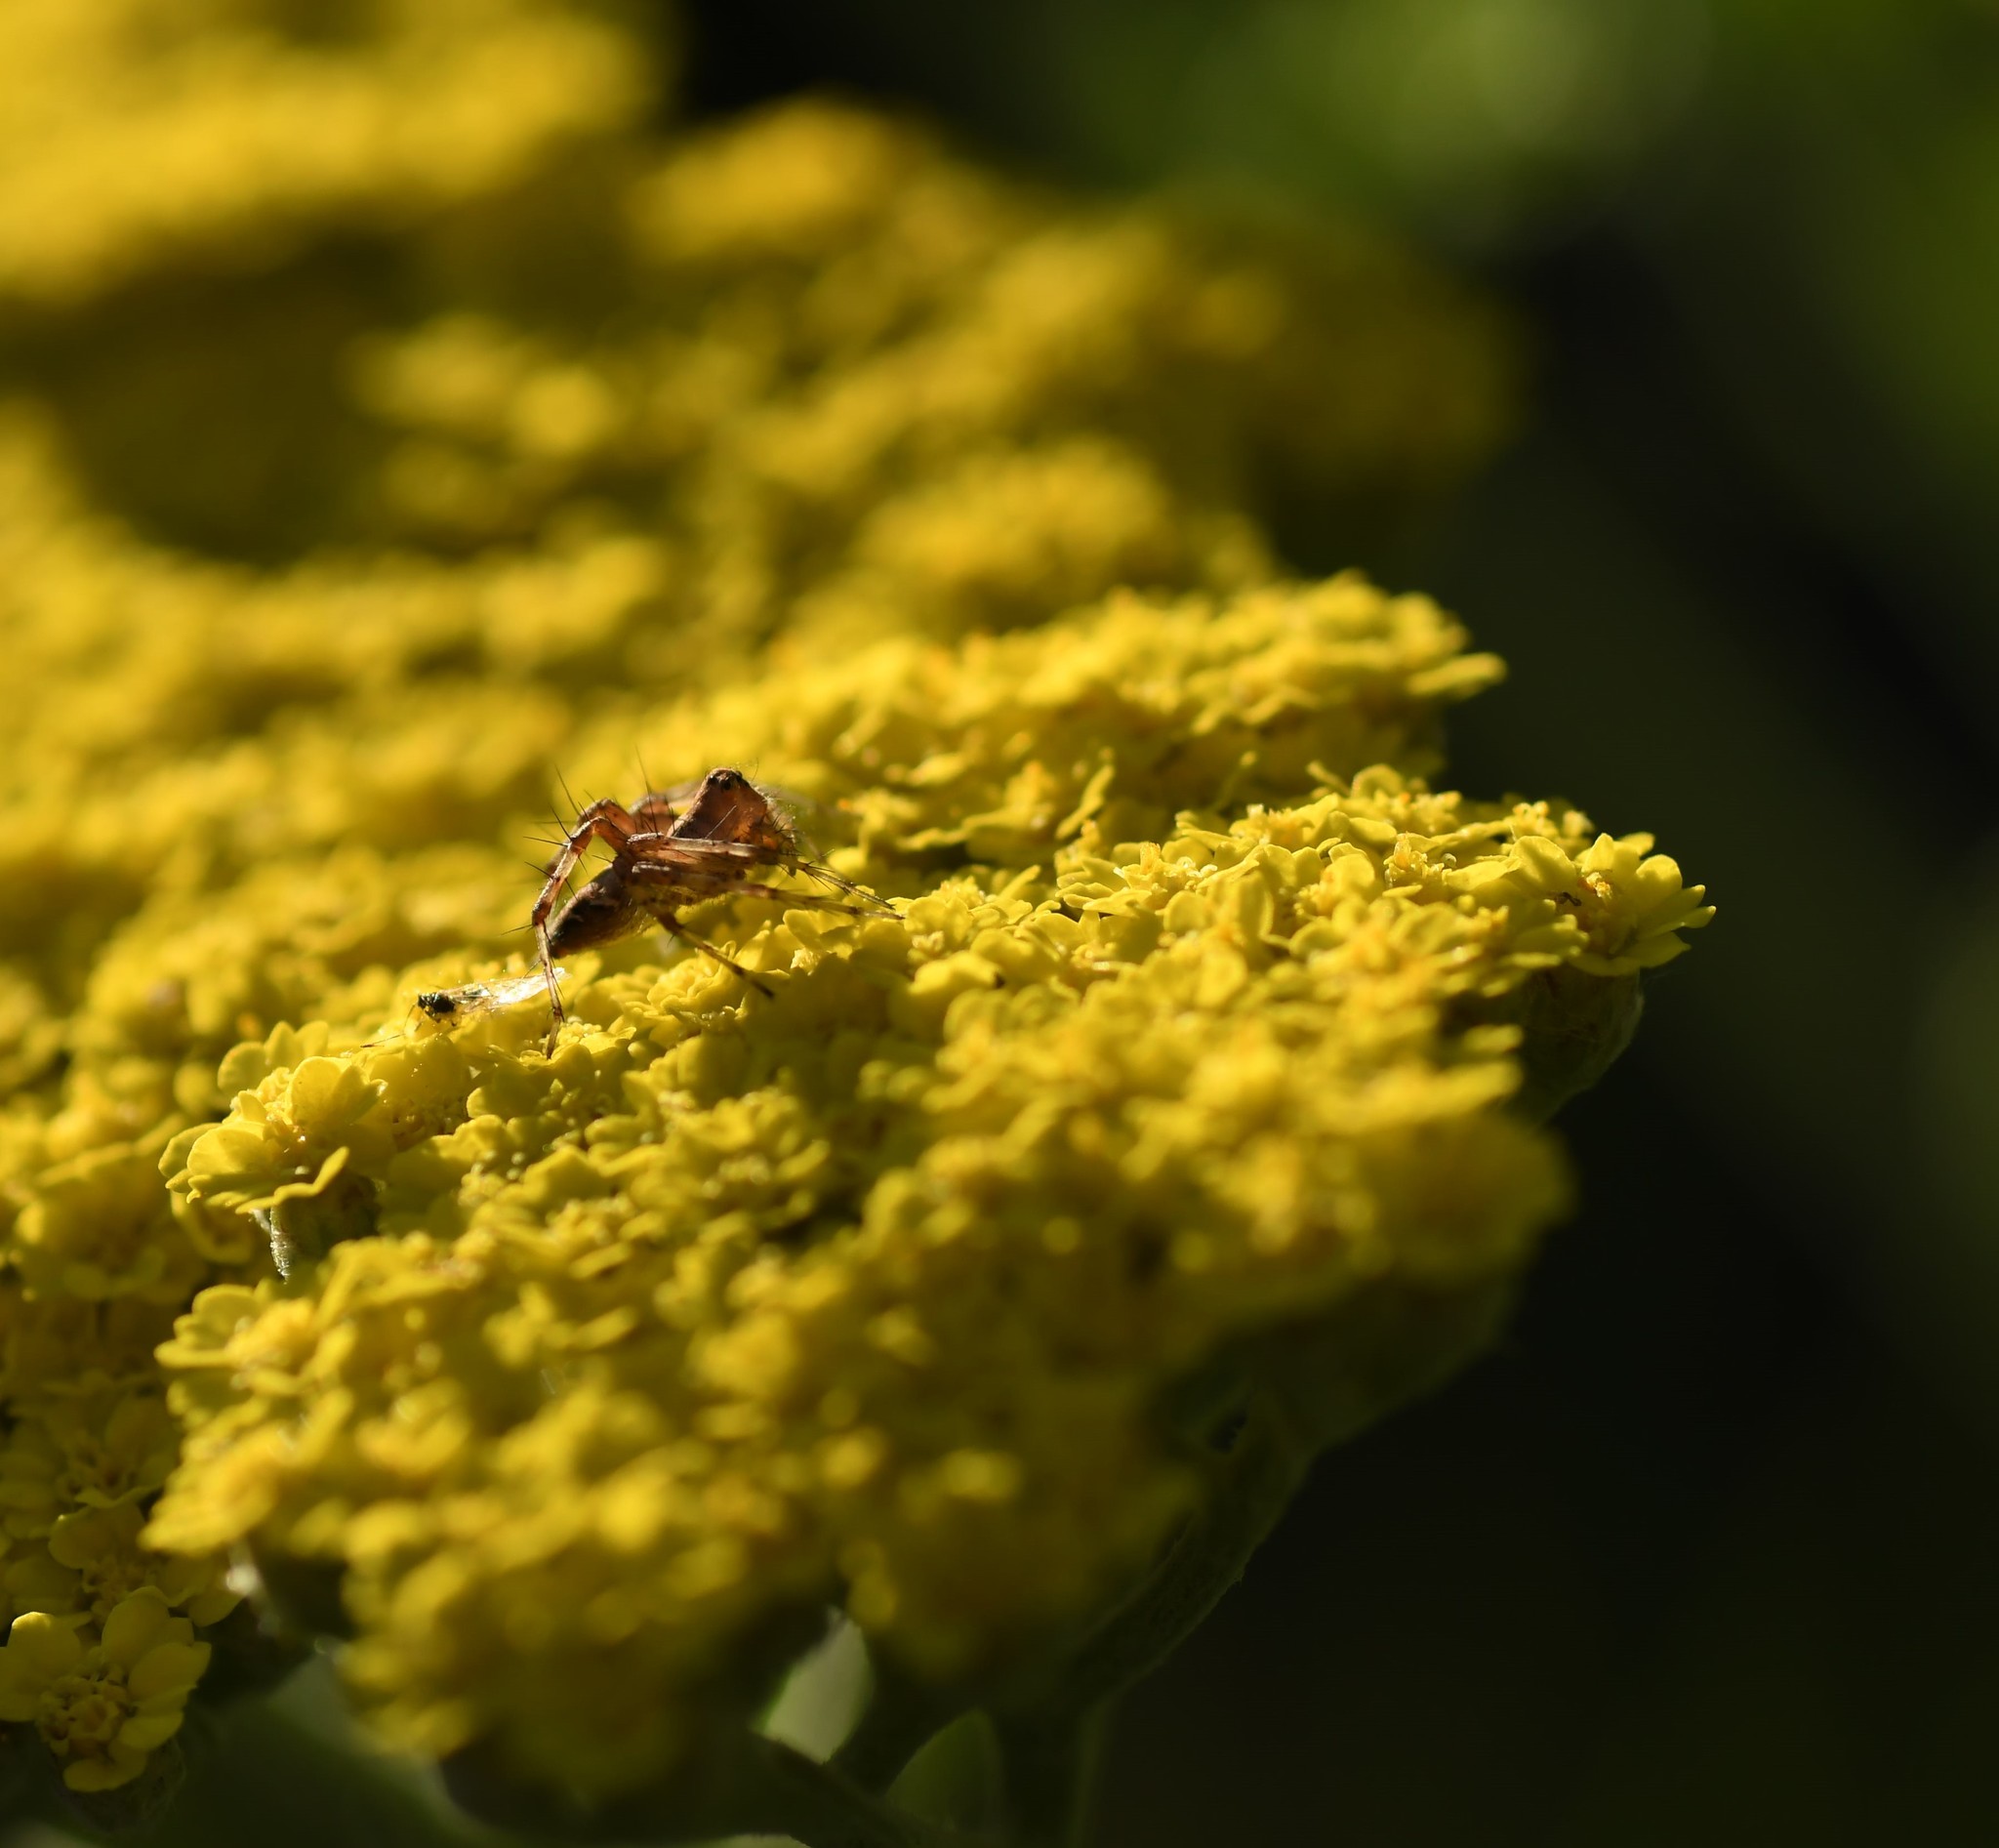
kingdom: Animalia
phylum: Arthropoda
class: Arachnida
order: Araneae
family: Oxyopidae
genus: Oxyopes
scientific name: Oxyopes scalaris
